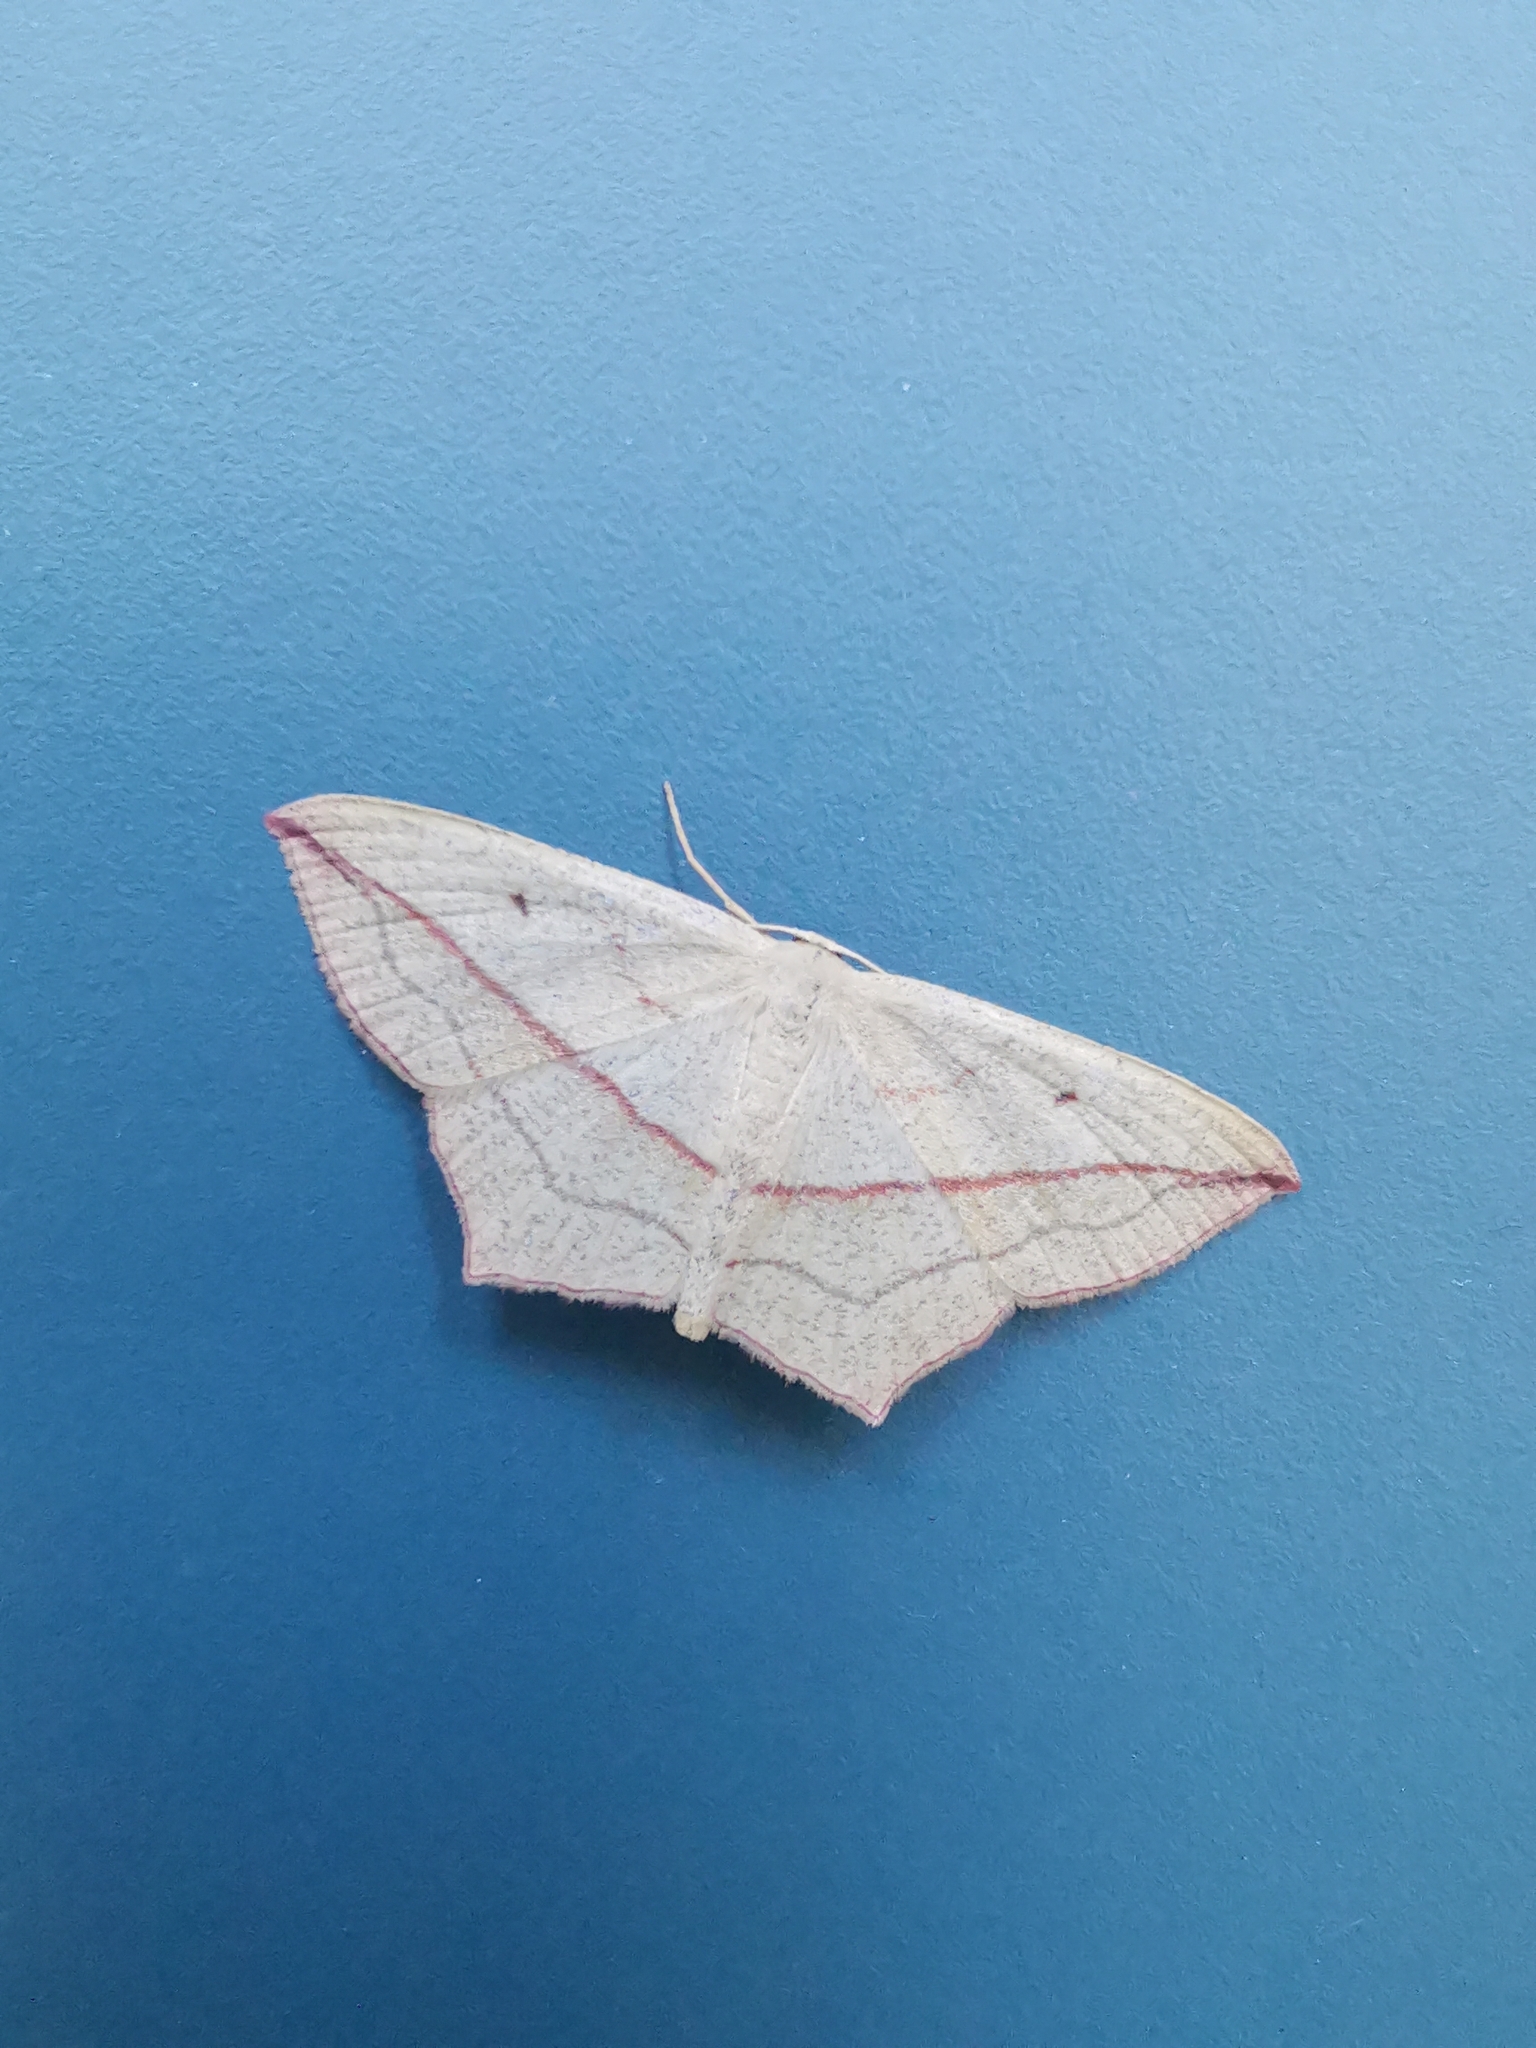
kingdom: Animalia
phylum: Arthropoda
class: Insecta
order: Lepidoptera
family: Geometridae
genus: Timandra
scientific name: Timandra comae
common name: Blood-vein
